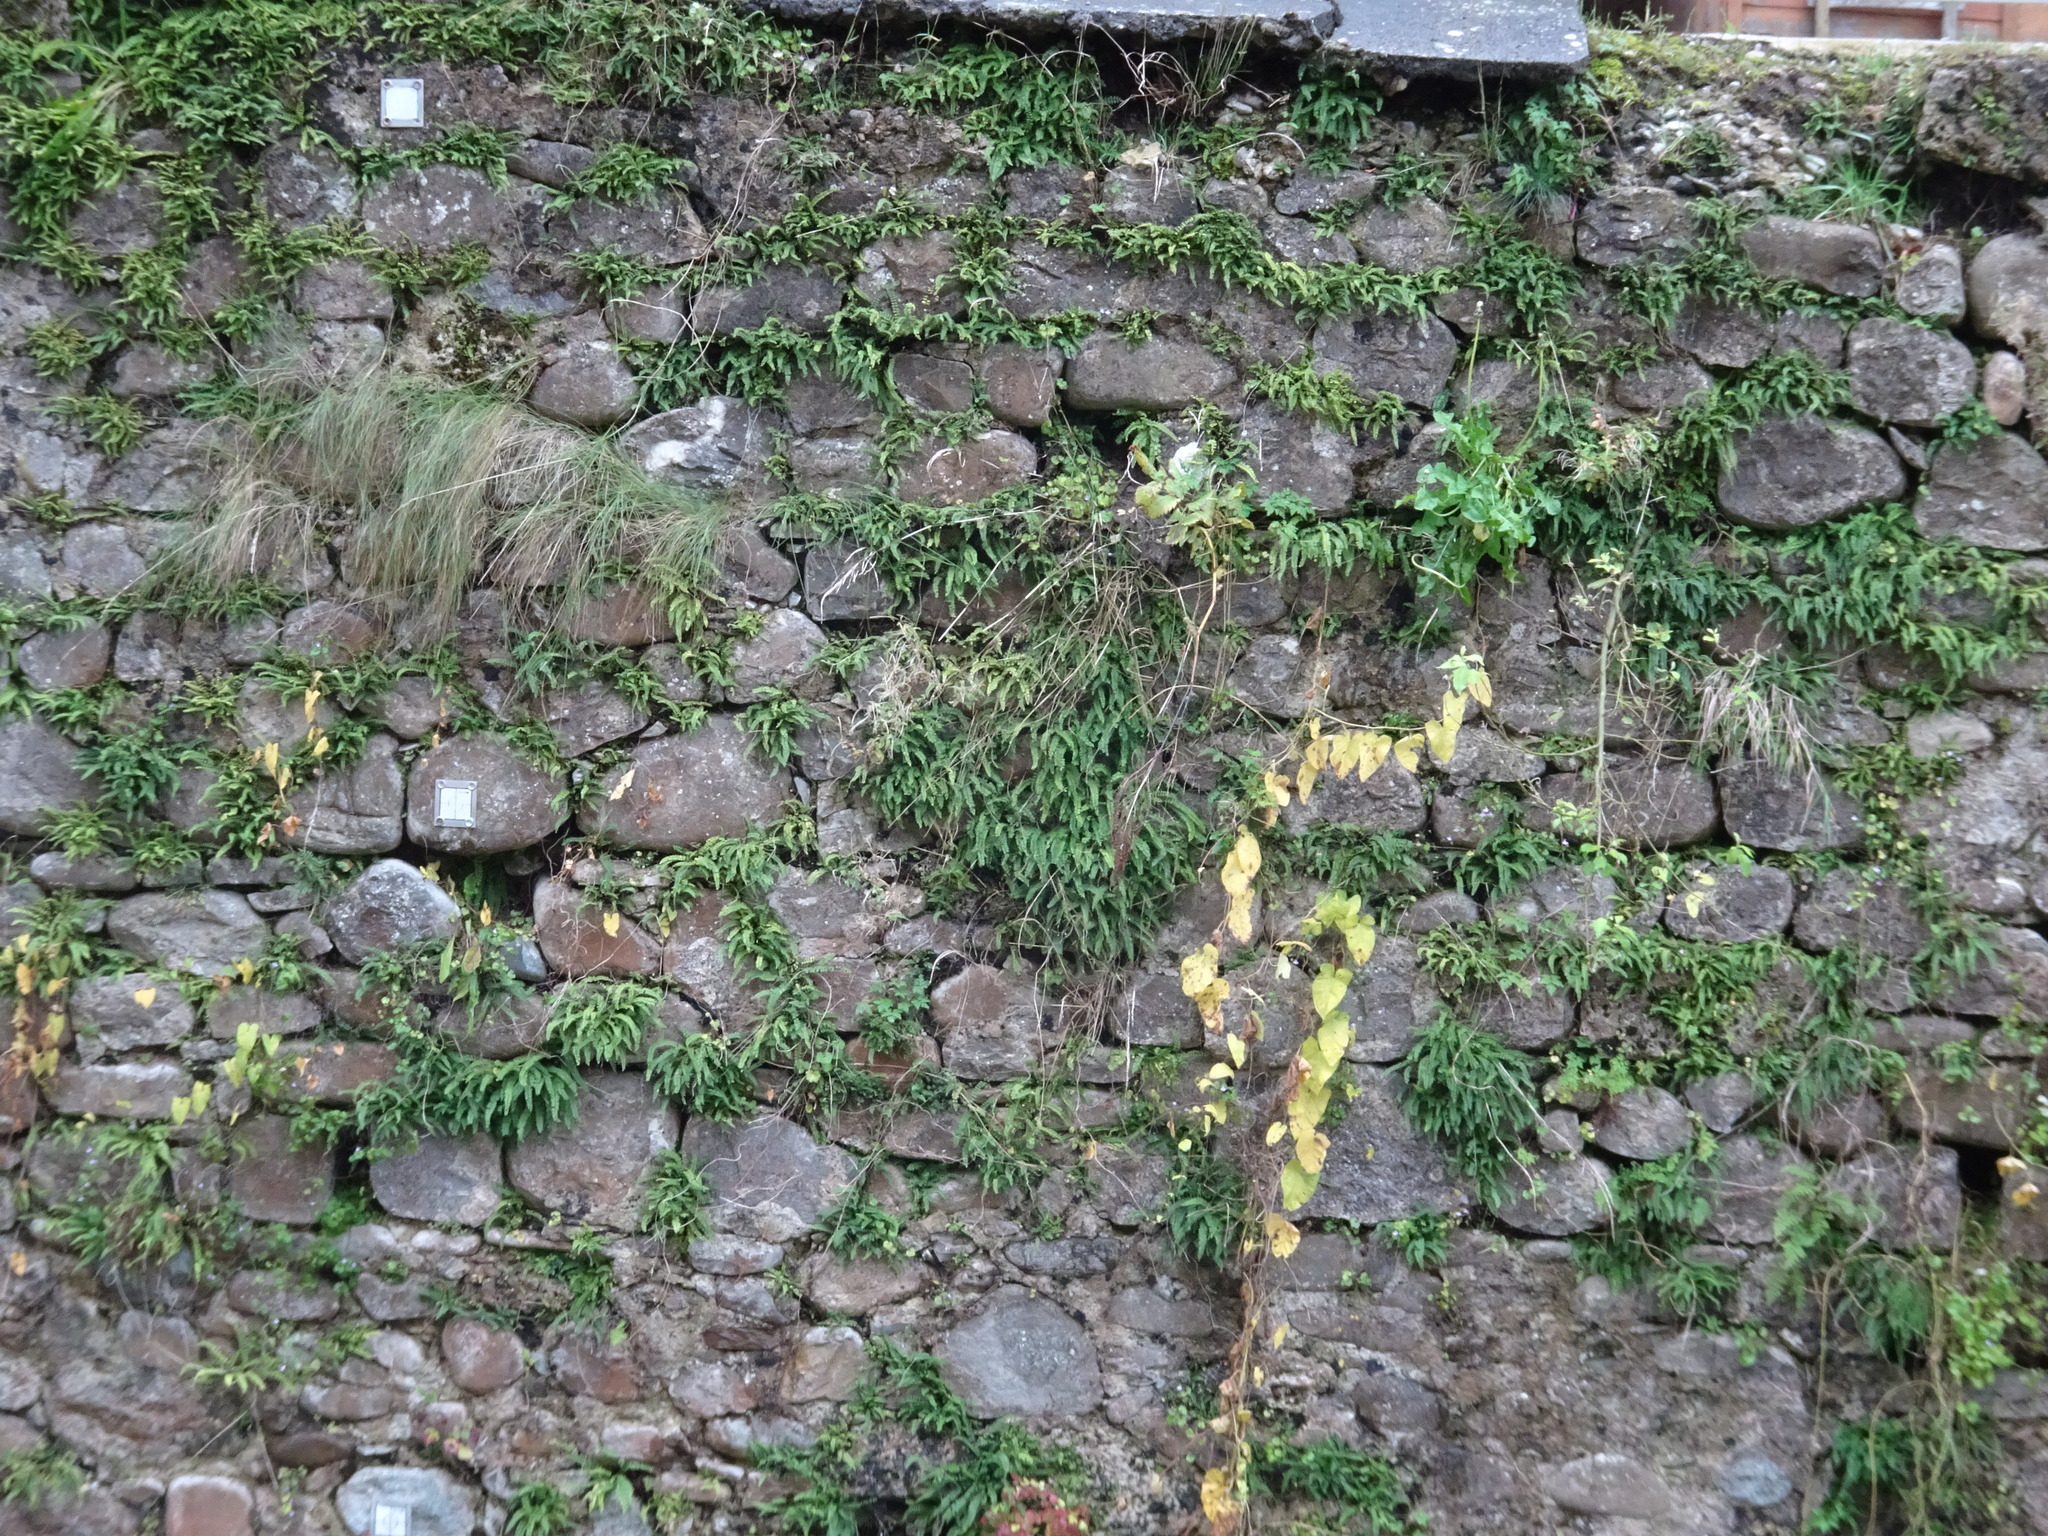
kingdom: Plantae
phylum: Tracheophyta
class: Polypodiopsida
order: Polypodiales
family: Aspleniaceae
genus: Asplenium
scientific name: Asplenium trichomanes
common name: Maidenhair spleenwort
